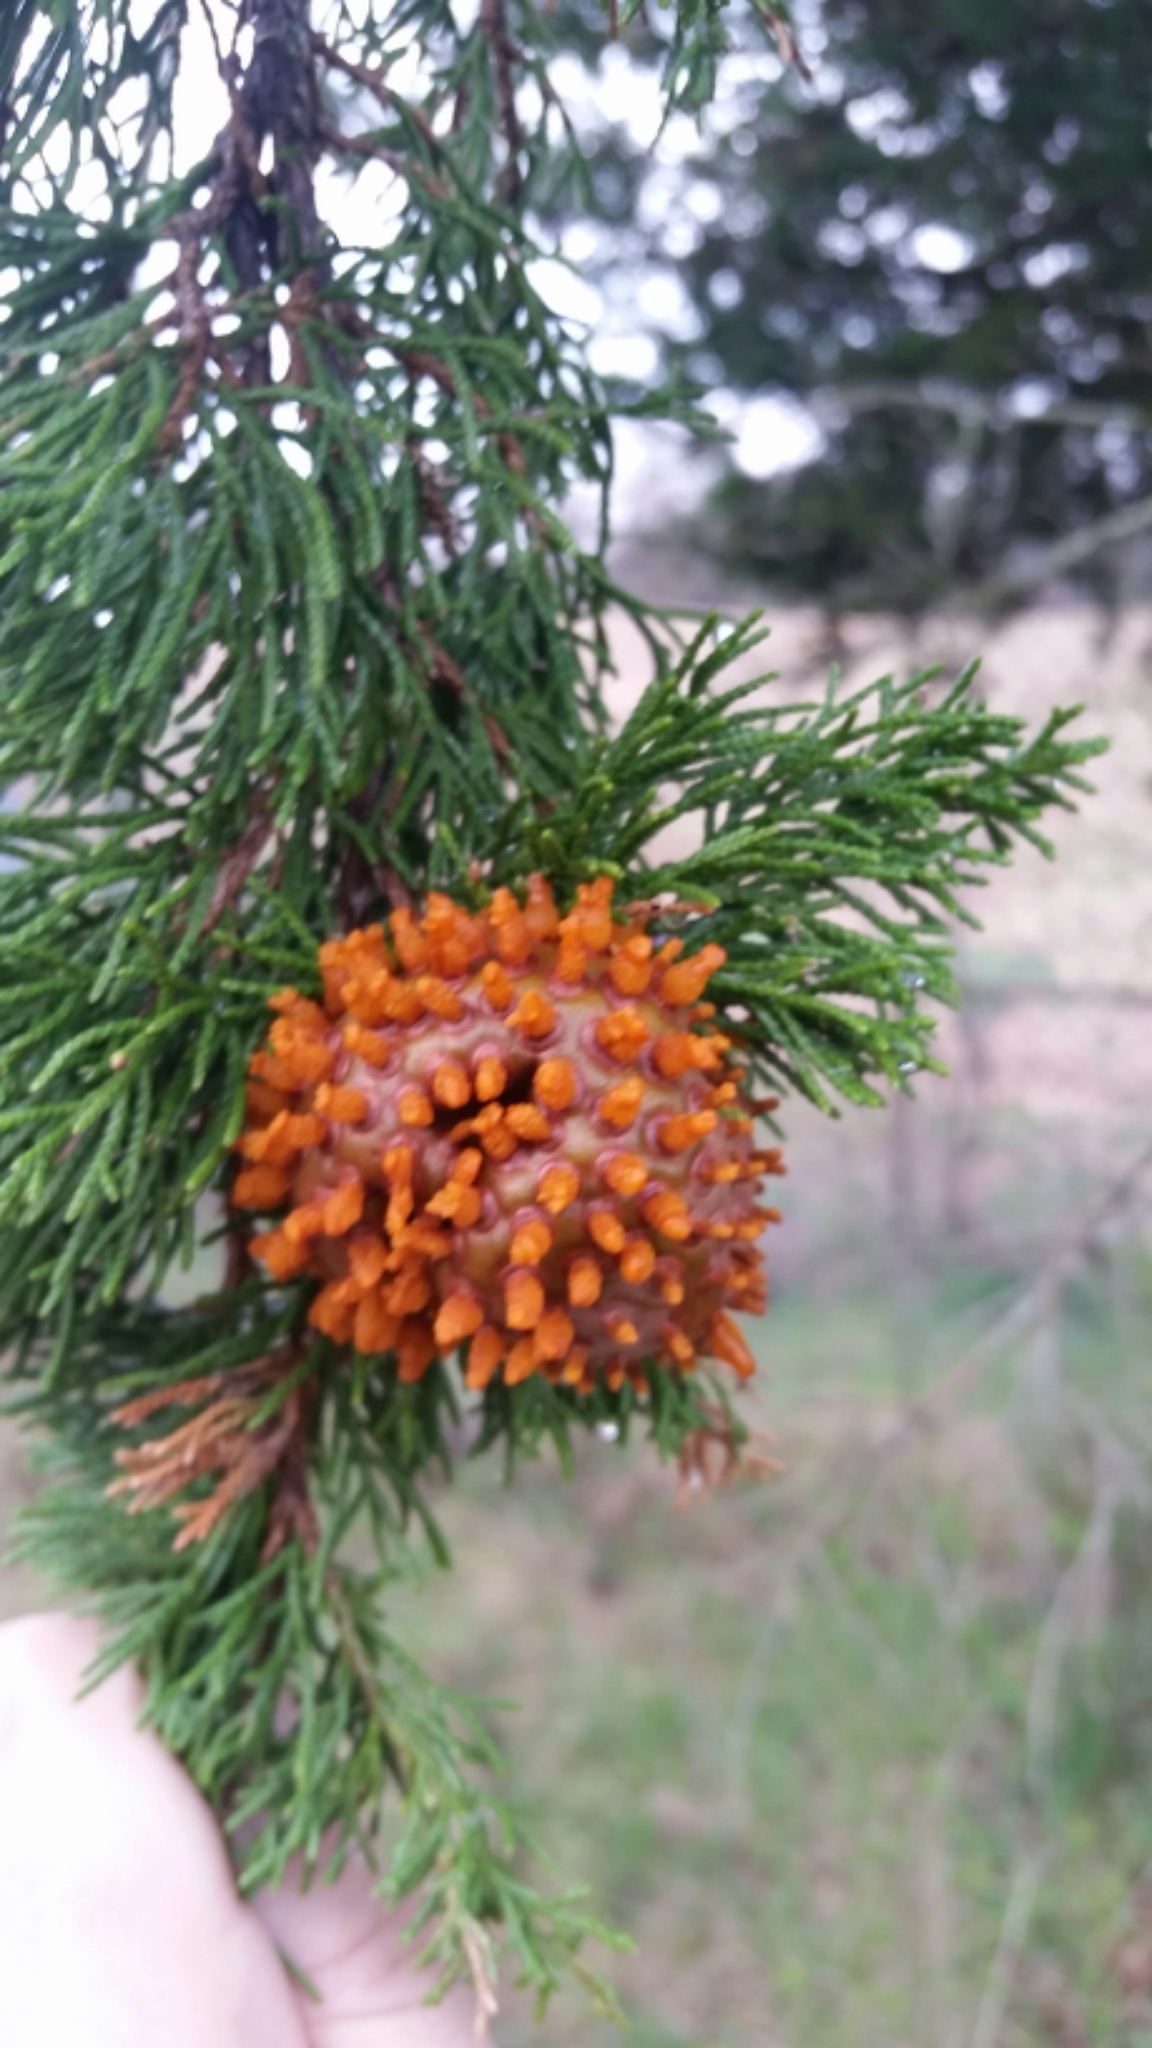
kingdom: Fungi
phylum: Basidiomycota
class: Pucciniomycetes
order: Pucciniales
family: Gymnosporangiaceae
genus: Gymnosporangium
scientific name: Gymnosporangium juniperi-virginianae
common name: Juniper-apple rust
